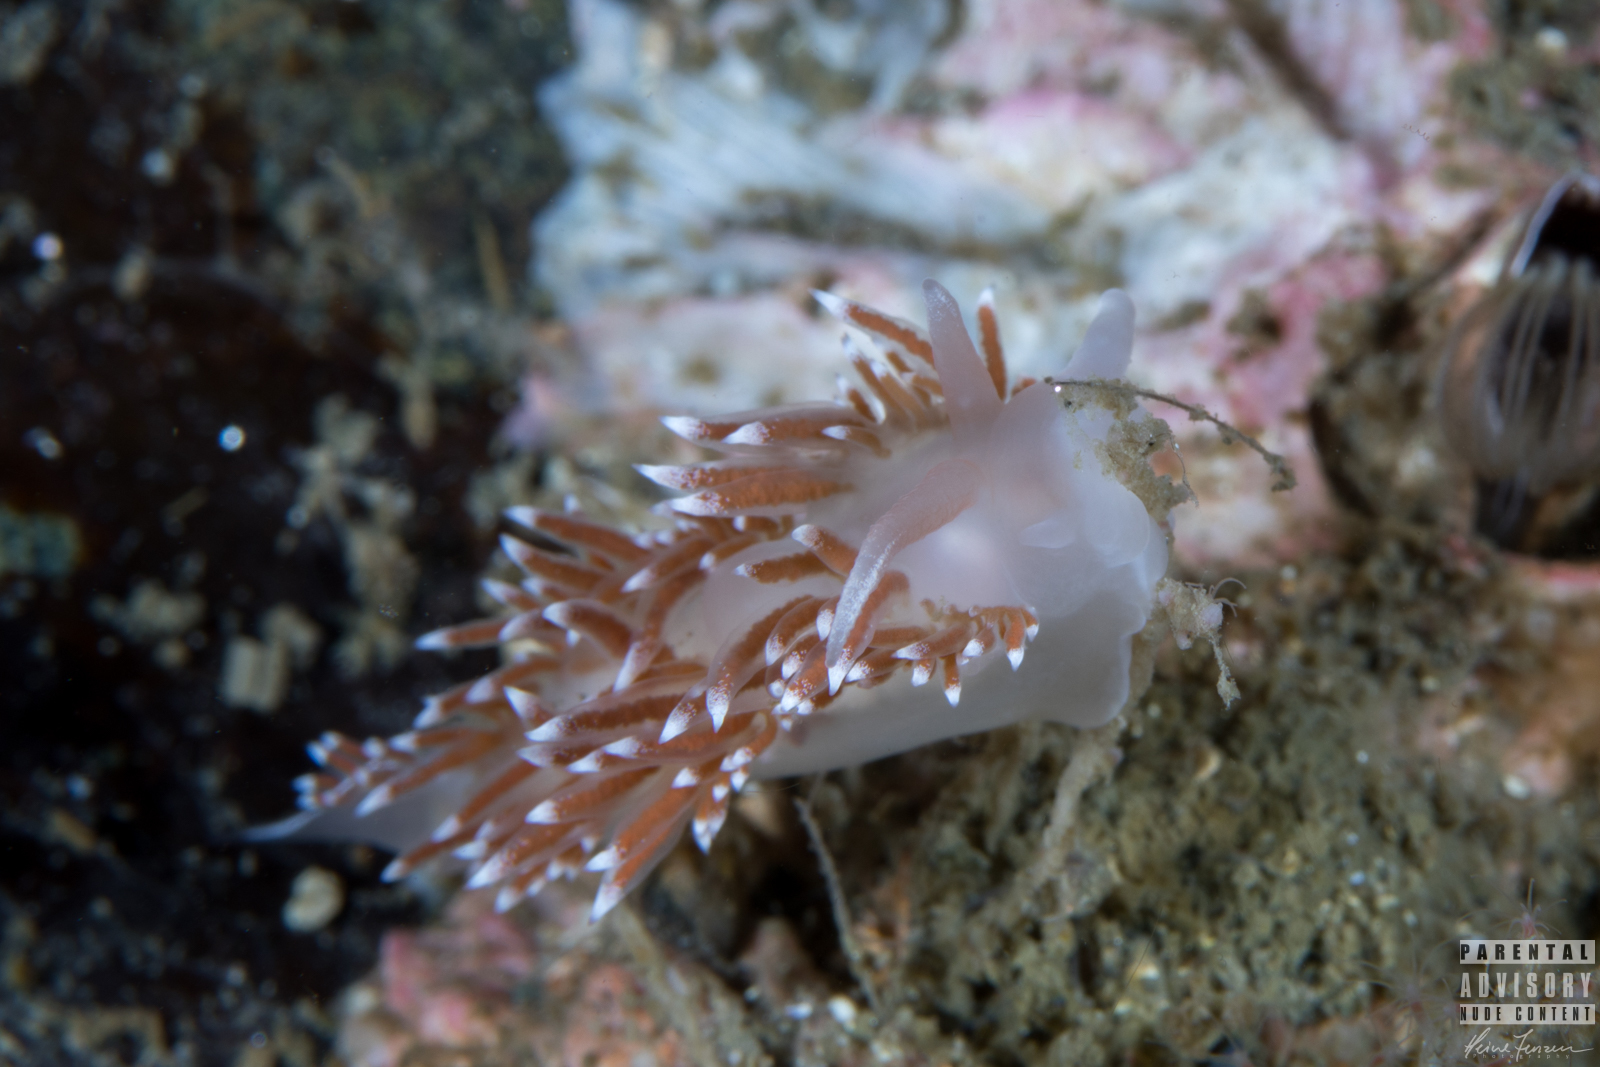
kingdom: Animalia
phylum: Mollusca
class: Gastropoda
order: Nudibranchia
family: Coryphellidae
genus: Coryphella
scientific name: Coryphella verrucosa
